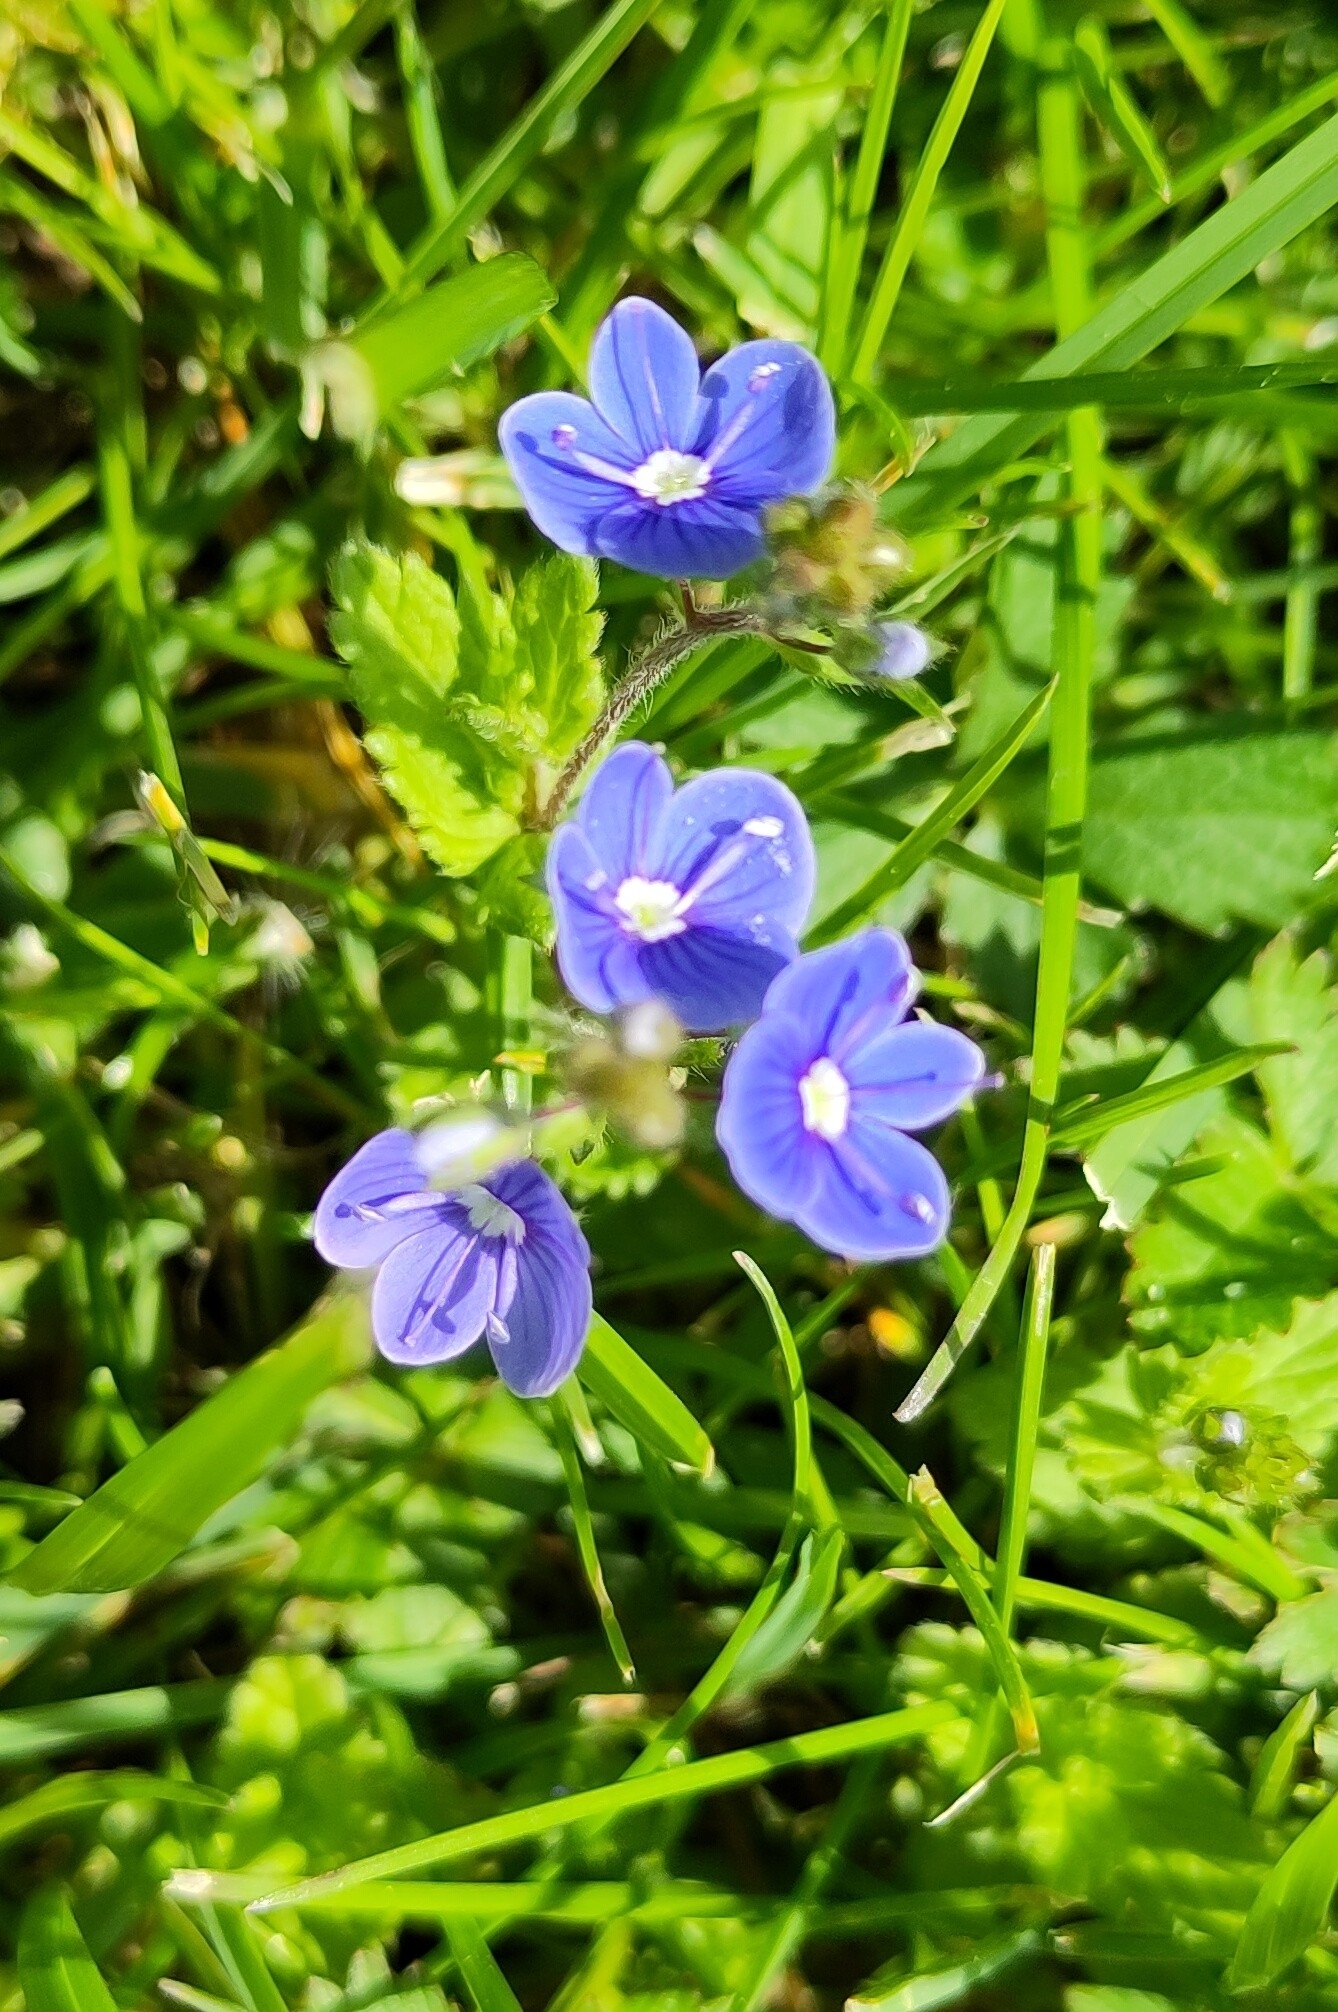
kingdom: Plantae
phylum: Tracheophyta
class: Magnoliopsida
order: Lamiales
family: Plantaginaceae
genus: Veronica
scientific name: Veronica chamaedrys
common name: Germander speedwell
